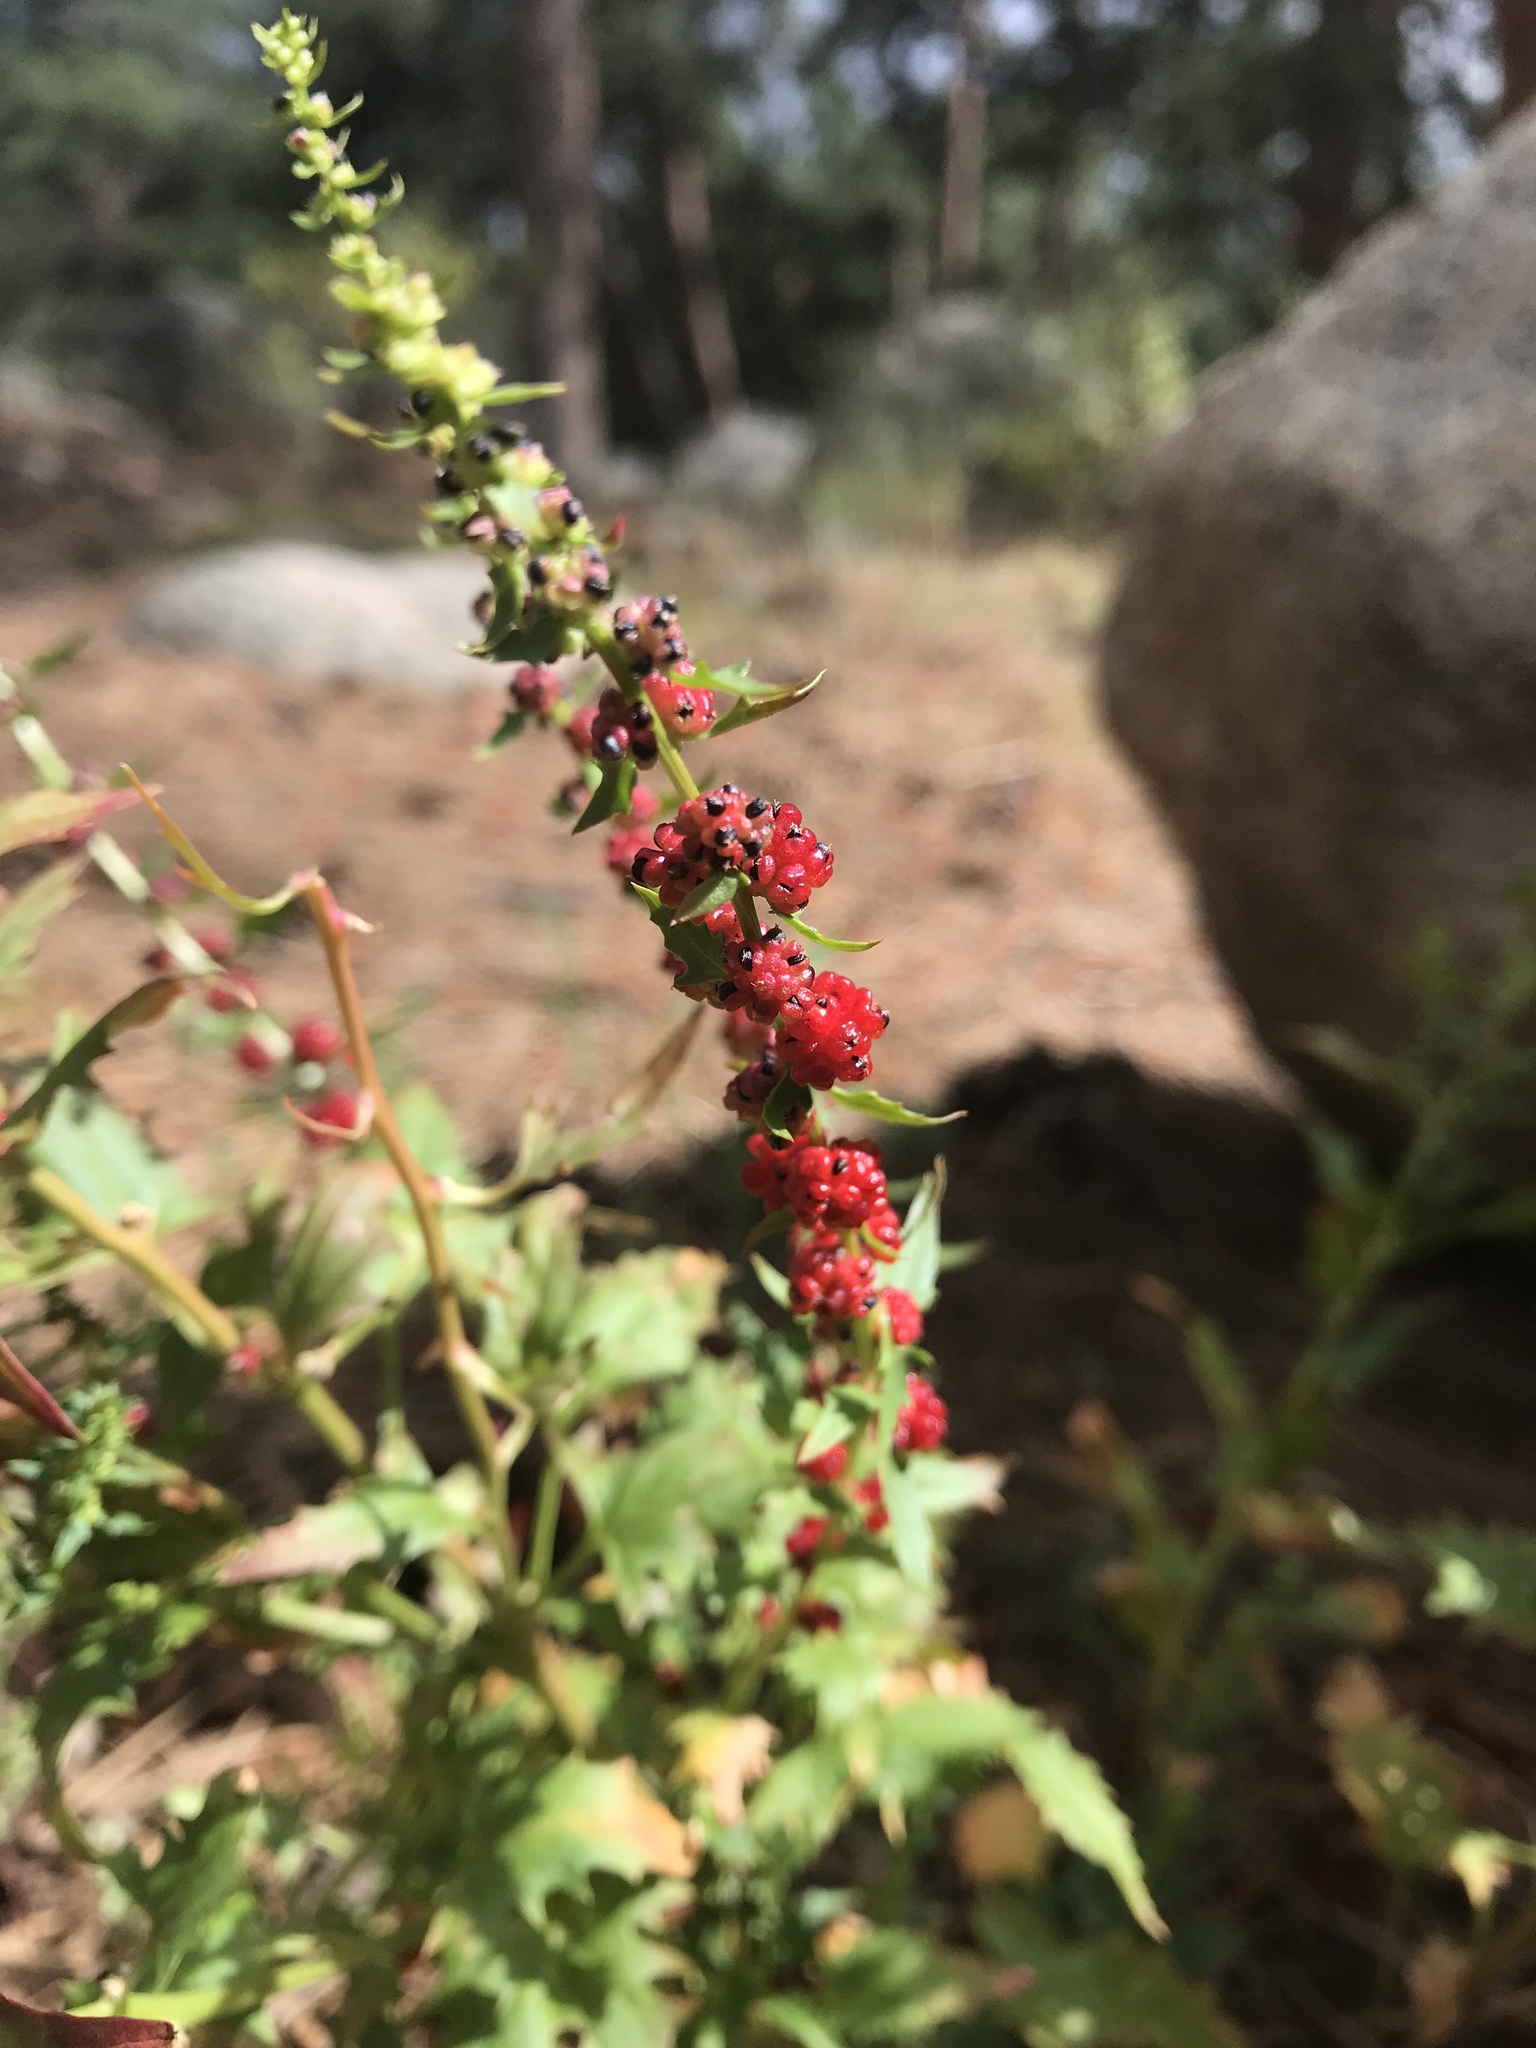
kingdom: Plantae
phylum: Tracheophyta
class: Magnoliopsida
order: Caryophyllales
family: Amaranthaceae
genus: Blitum
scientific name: Blitum capitatum
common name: Strawberry-blight
